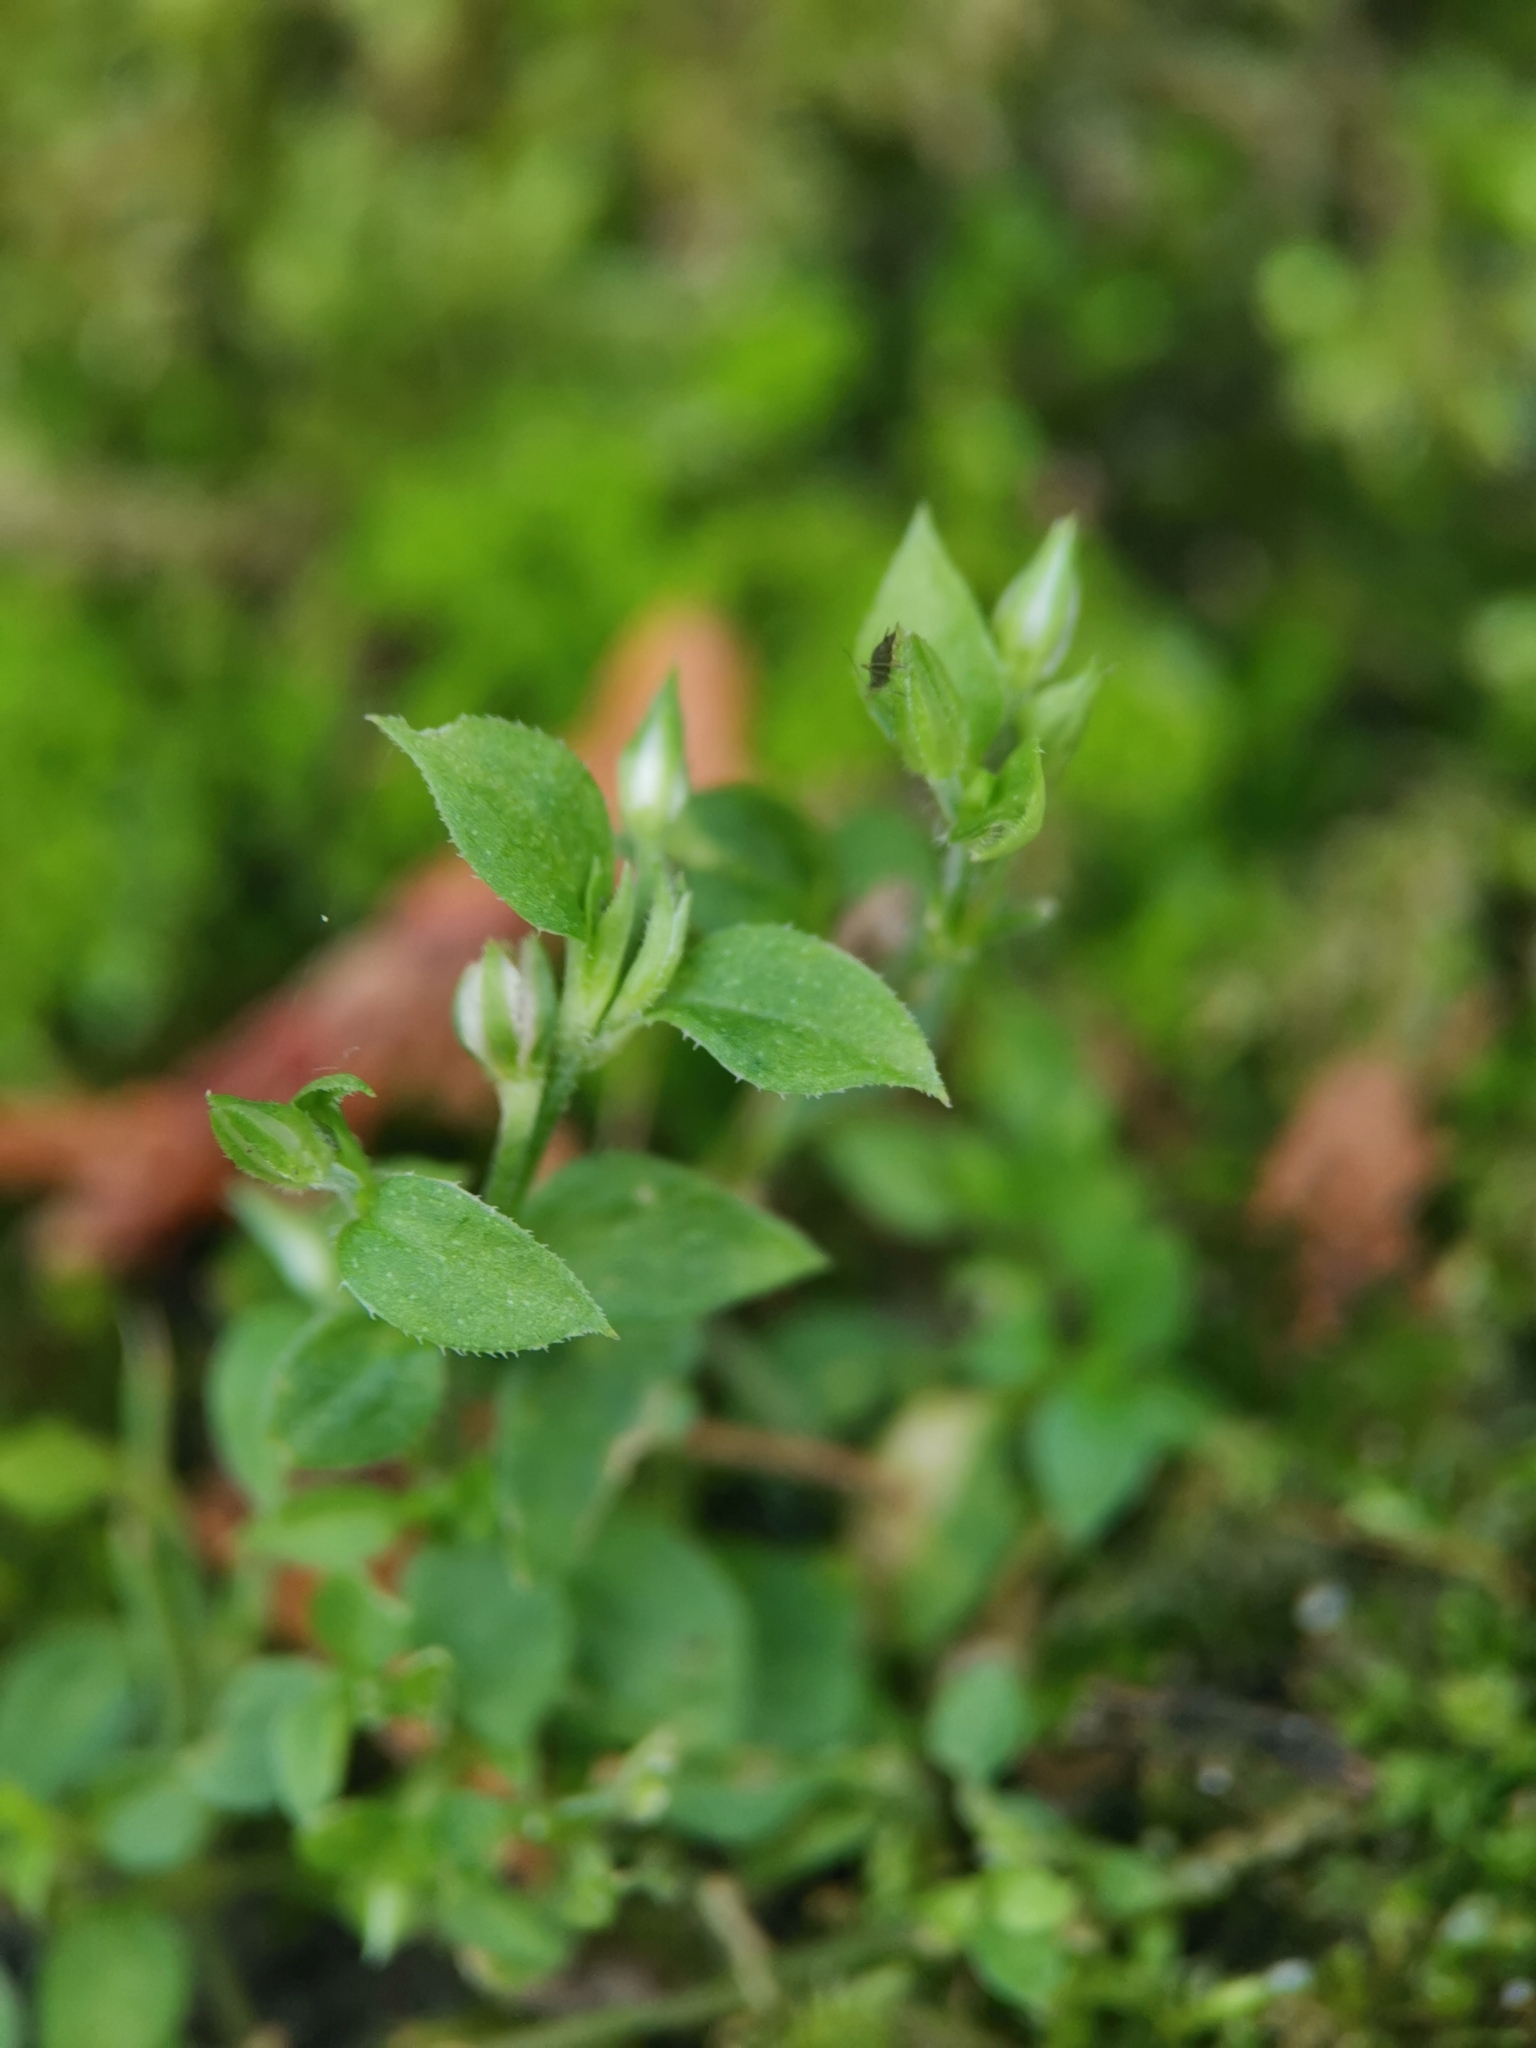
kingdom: Plantae
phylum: Tracheophyta
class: Magnoliopsida
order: Caryophyllales
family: Caryophyllaceae
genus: Moehringia
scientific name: Moehringia trinervia
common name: Three-nerved sandwort
